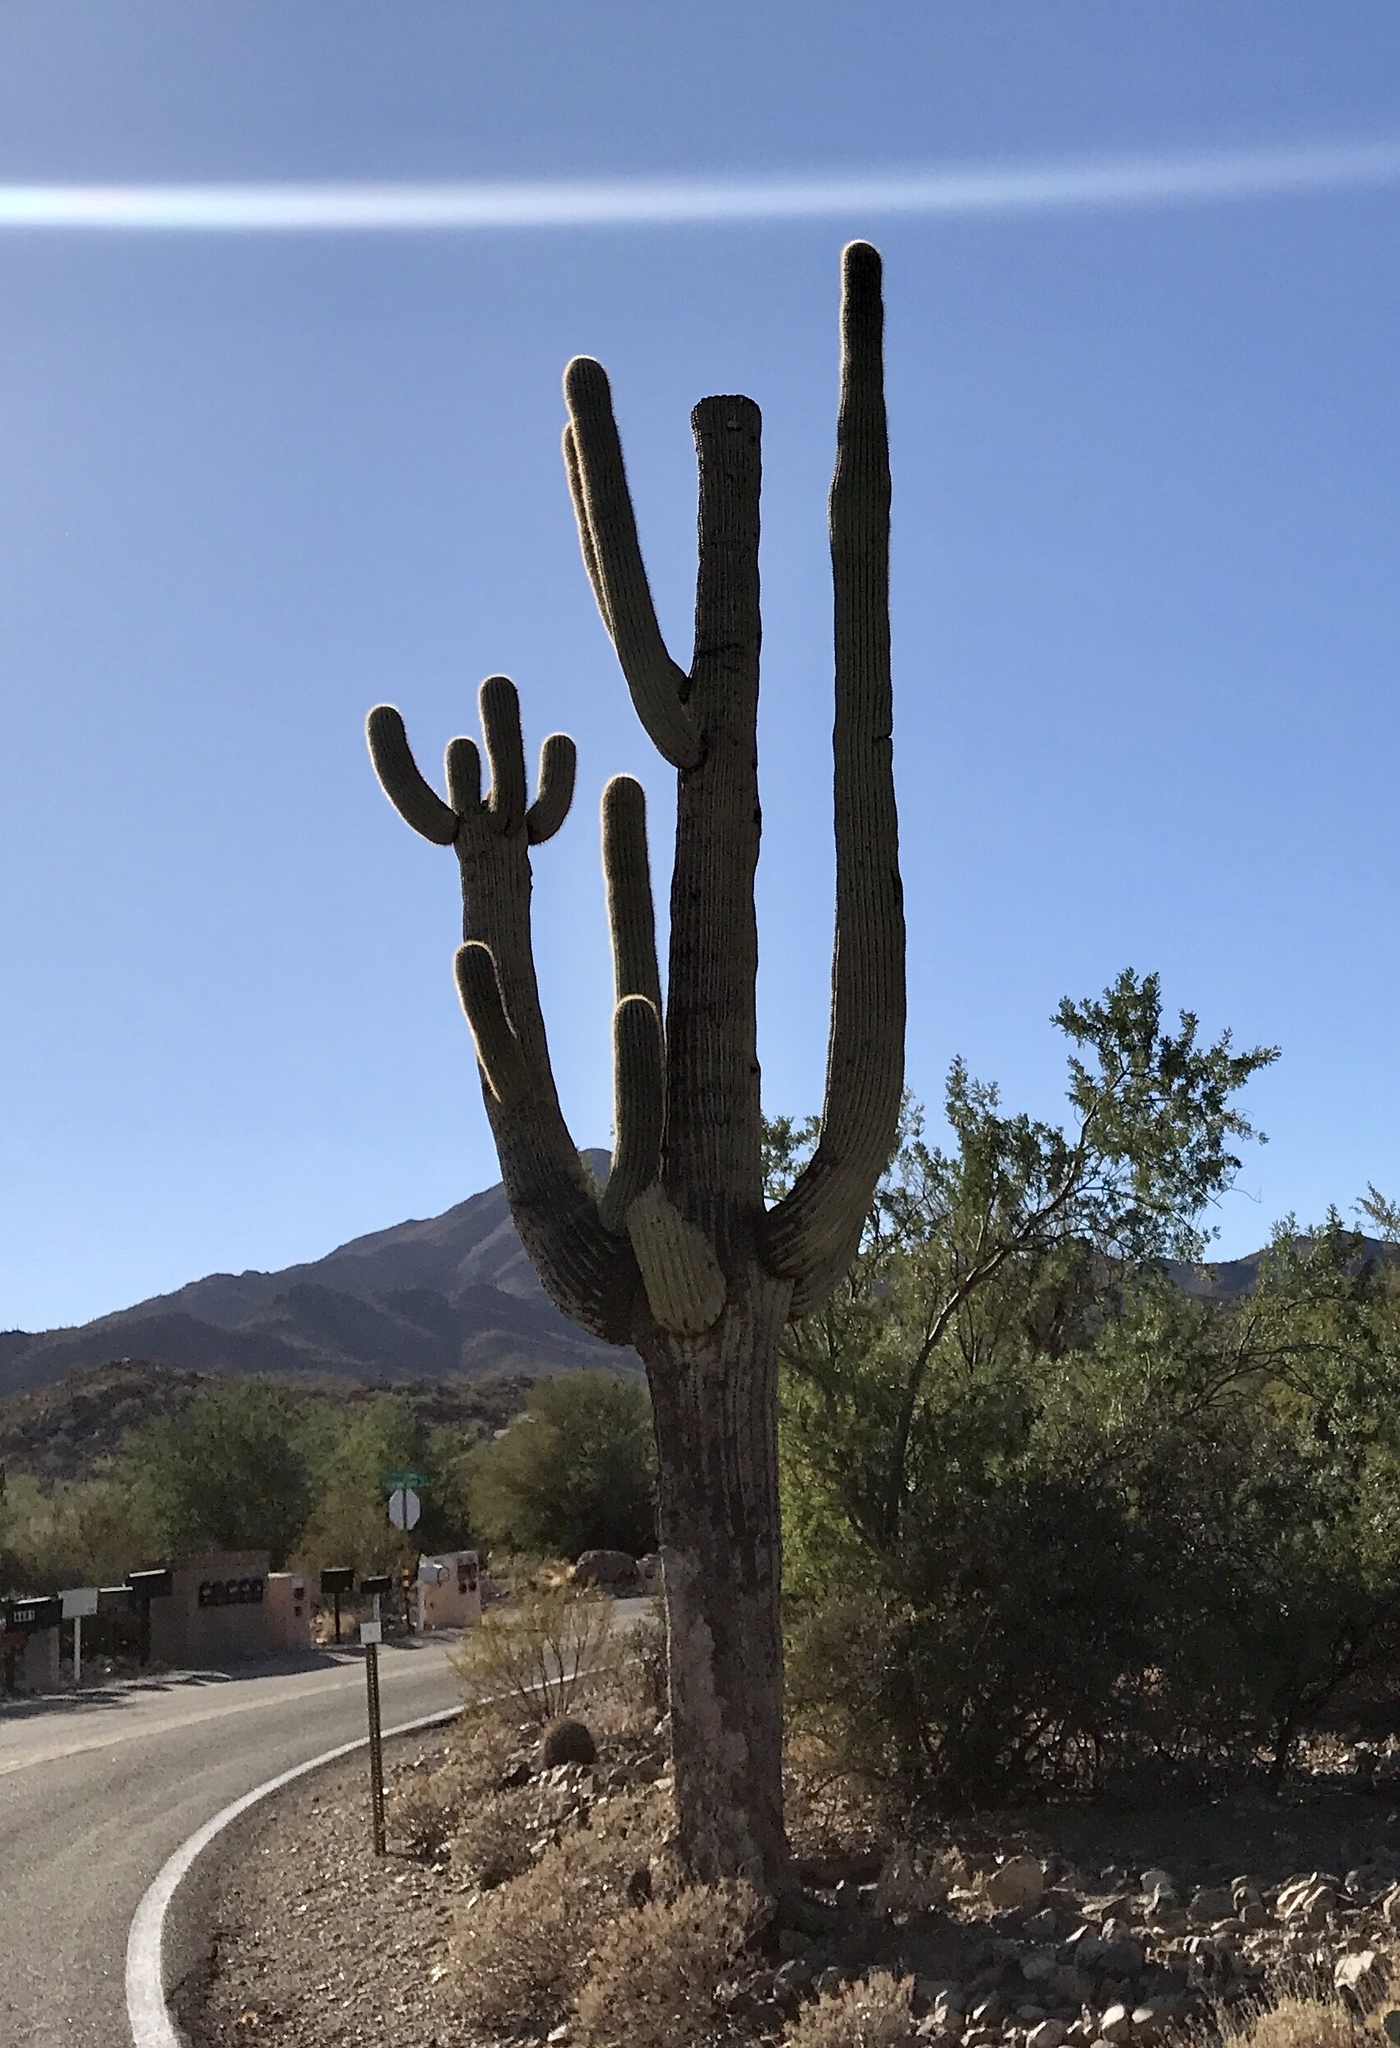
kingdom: Plantae
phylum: Tracheophyta
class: Magnoliopsida
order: Caryophyllales
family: Cactaceae
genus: Carnegiea
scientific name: Carnegiea gigantea
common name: Saguaro
